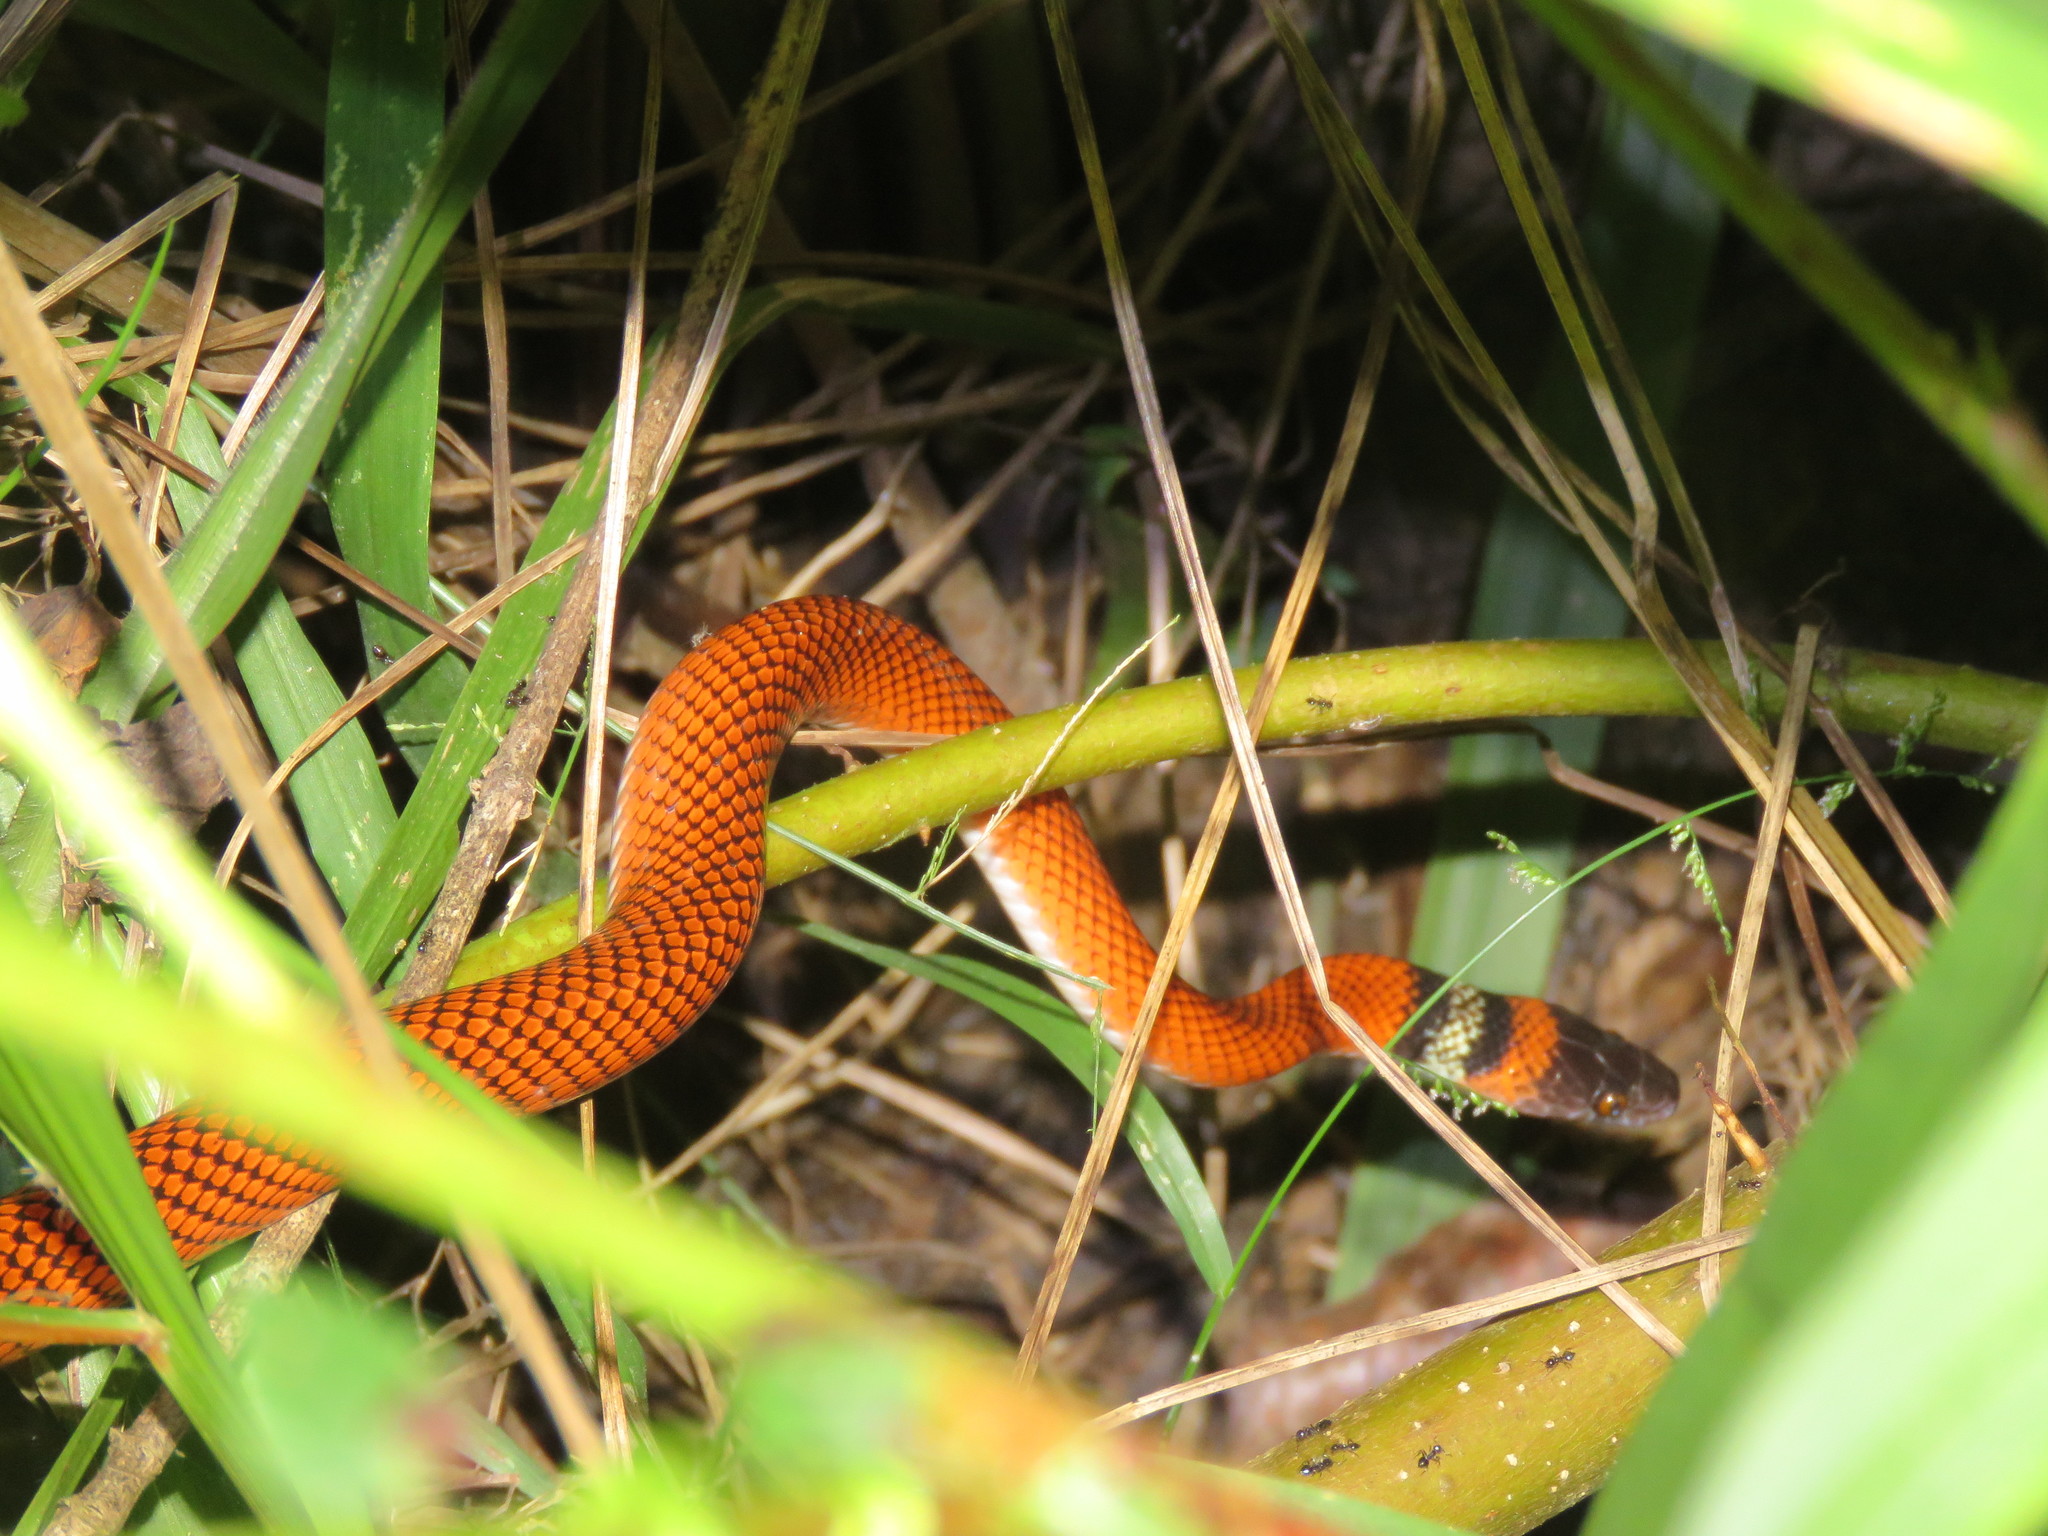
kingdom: Animalia
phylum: Chordata
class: Squamata
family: Colubridae
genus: Oxyrhopus
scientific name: Oxyrhopus melanogenys
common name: Tschudi's false coral snake
